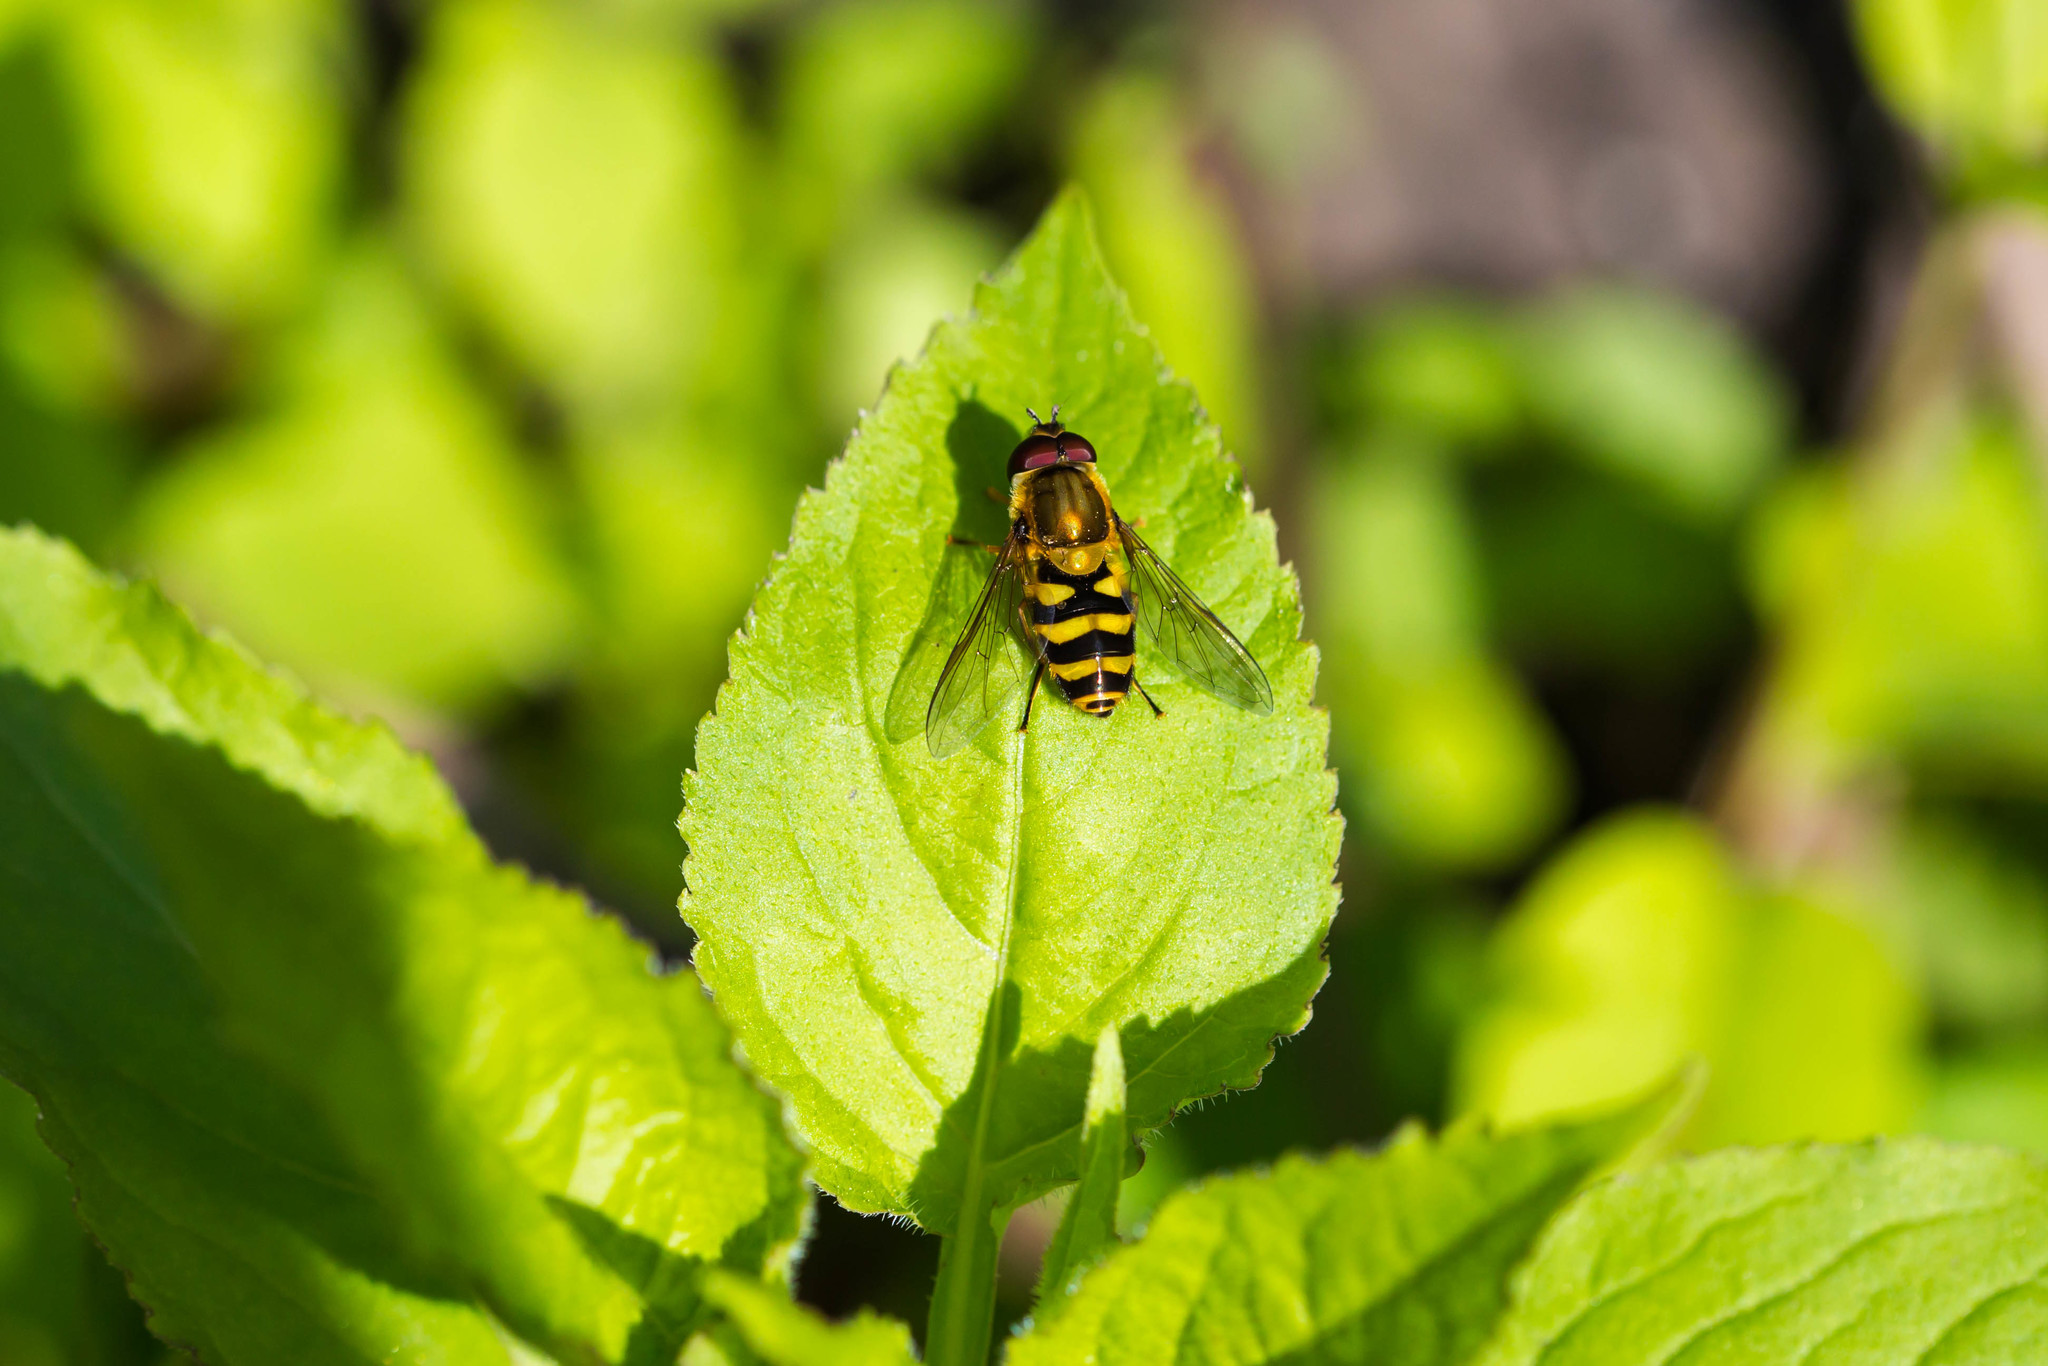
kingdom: Animalia
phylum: Arthropoda
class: Insecta
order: Diptera
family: Syrphidae
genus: Syrphus
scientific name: Syrphus
